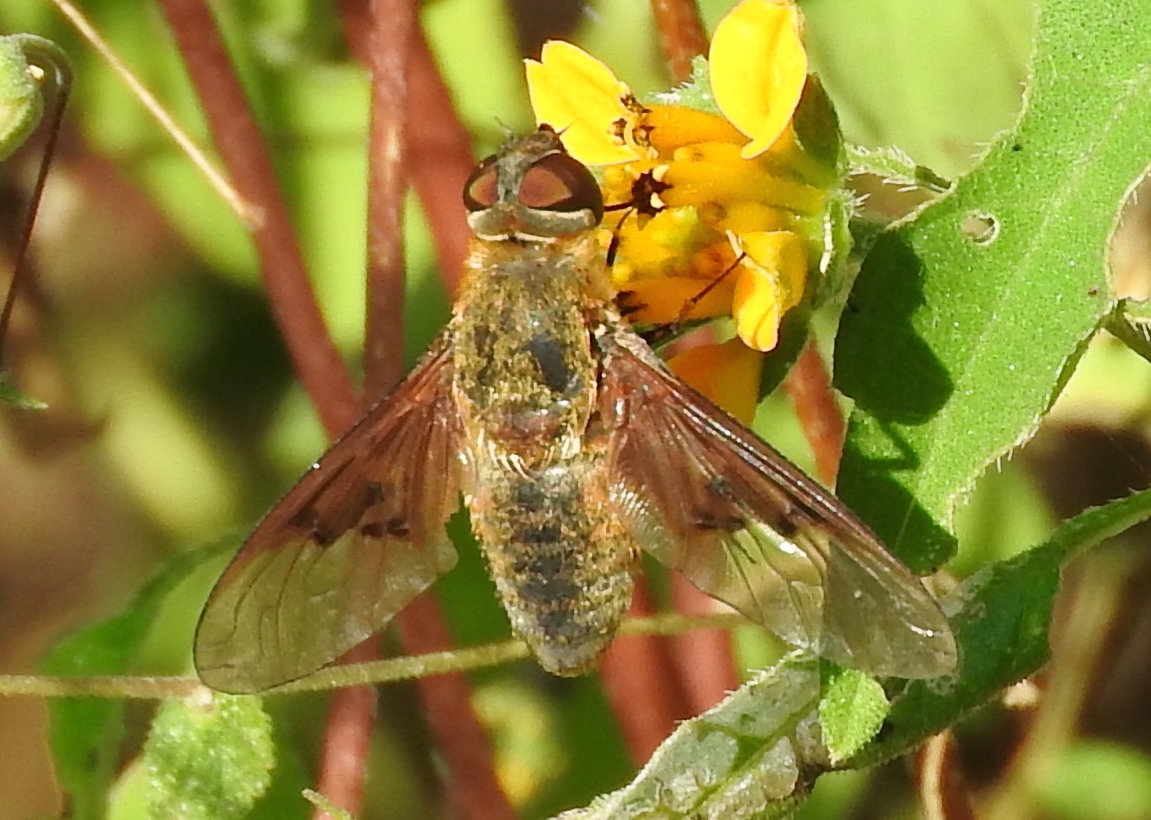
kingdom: Animalia
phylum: Arthropoda
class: Insecta
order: Diptera
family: Bombyliidae
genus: Chrysanthrax
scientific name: Chrysanthrax
